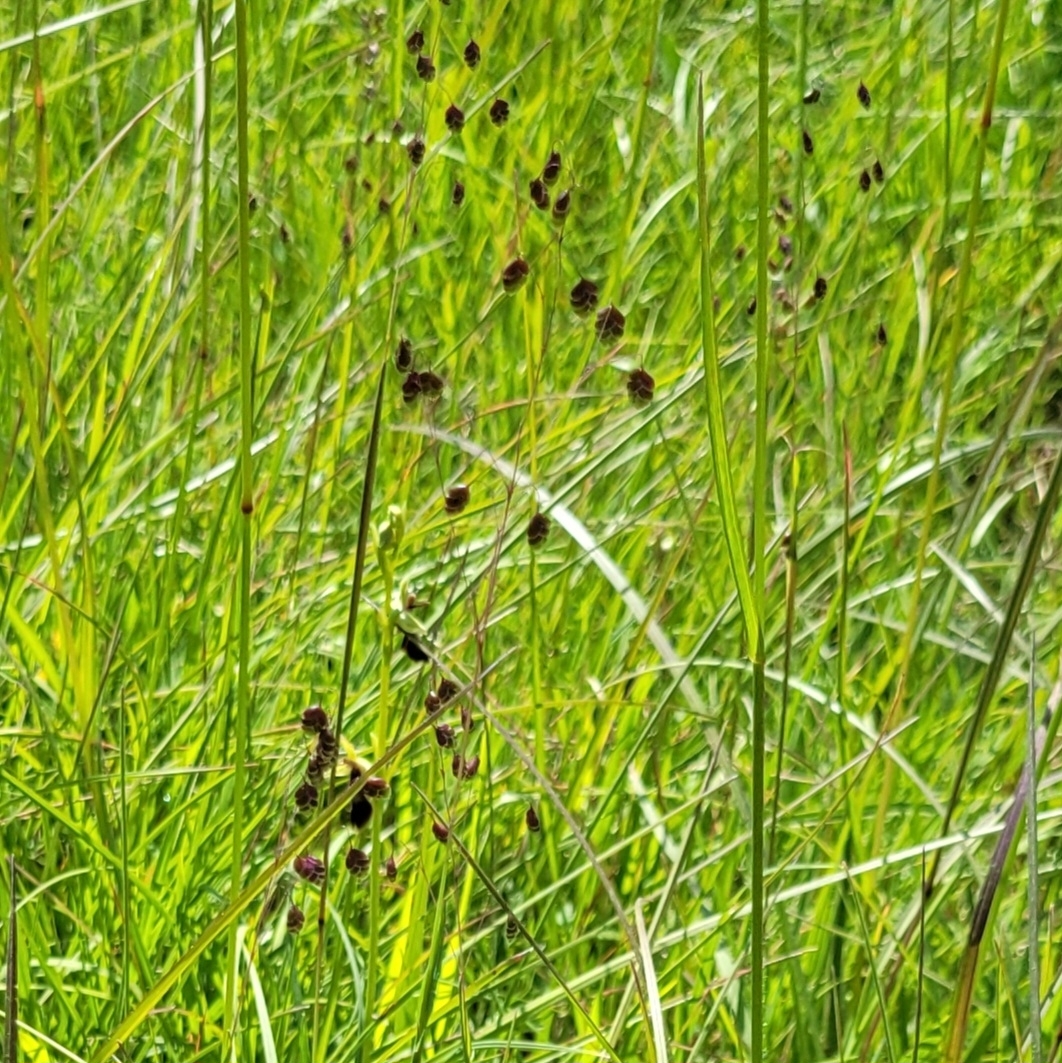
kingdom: Plantae
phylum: Tracheophyta
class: Liliopsida
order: Poales
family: Poaceae
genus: Briza
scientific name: Briza media
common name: Quaking grass
